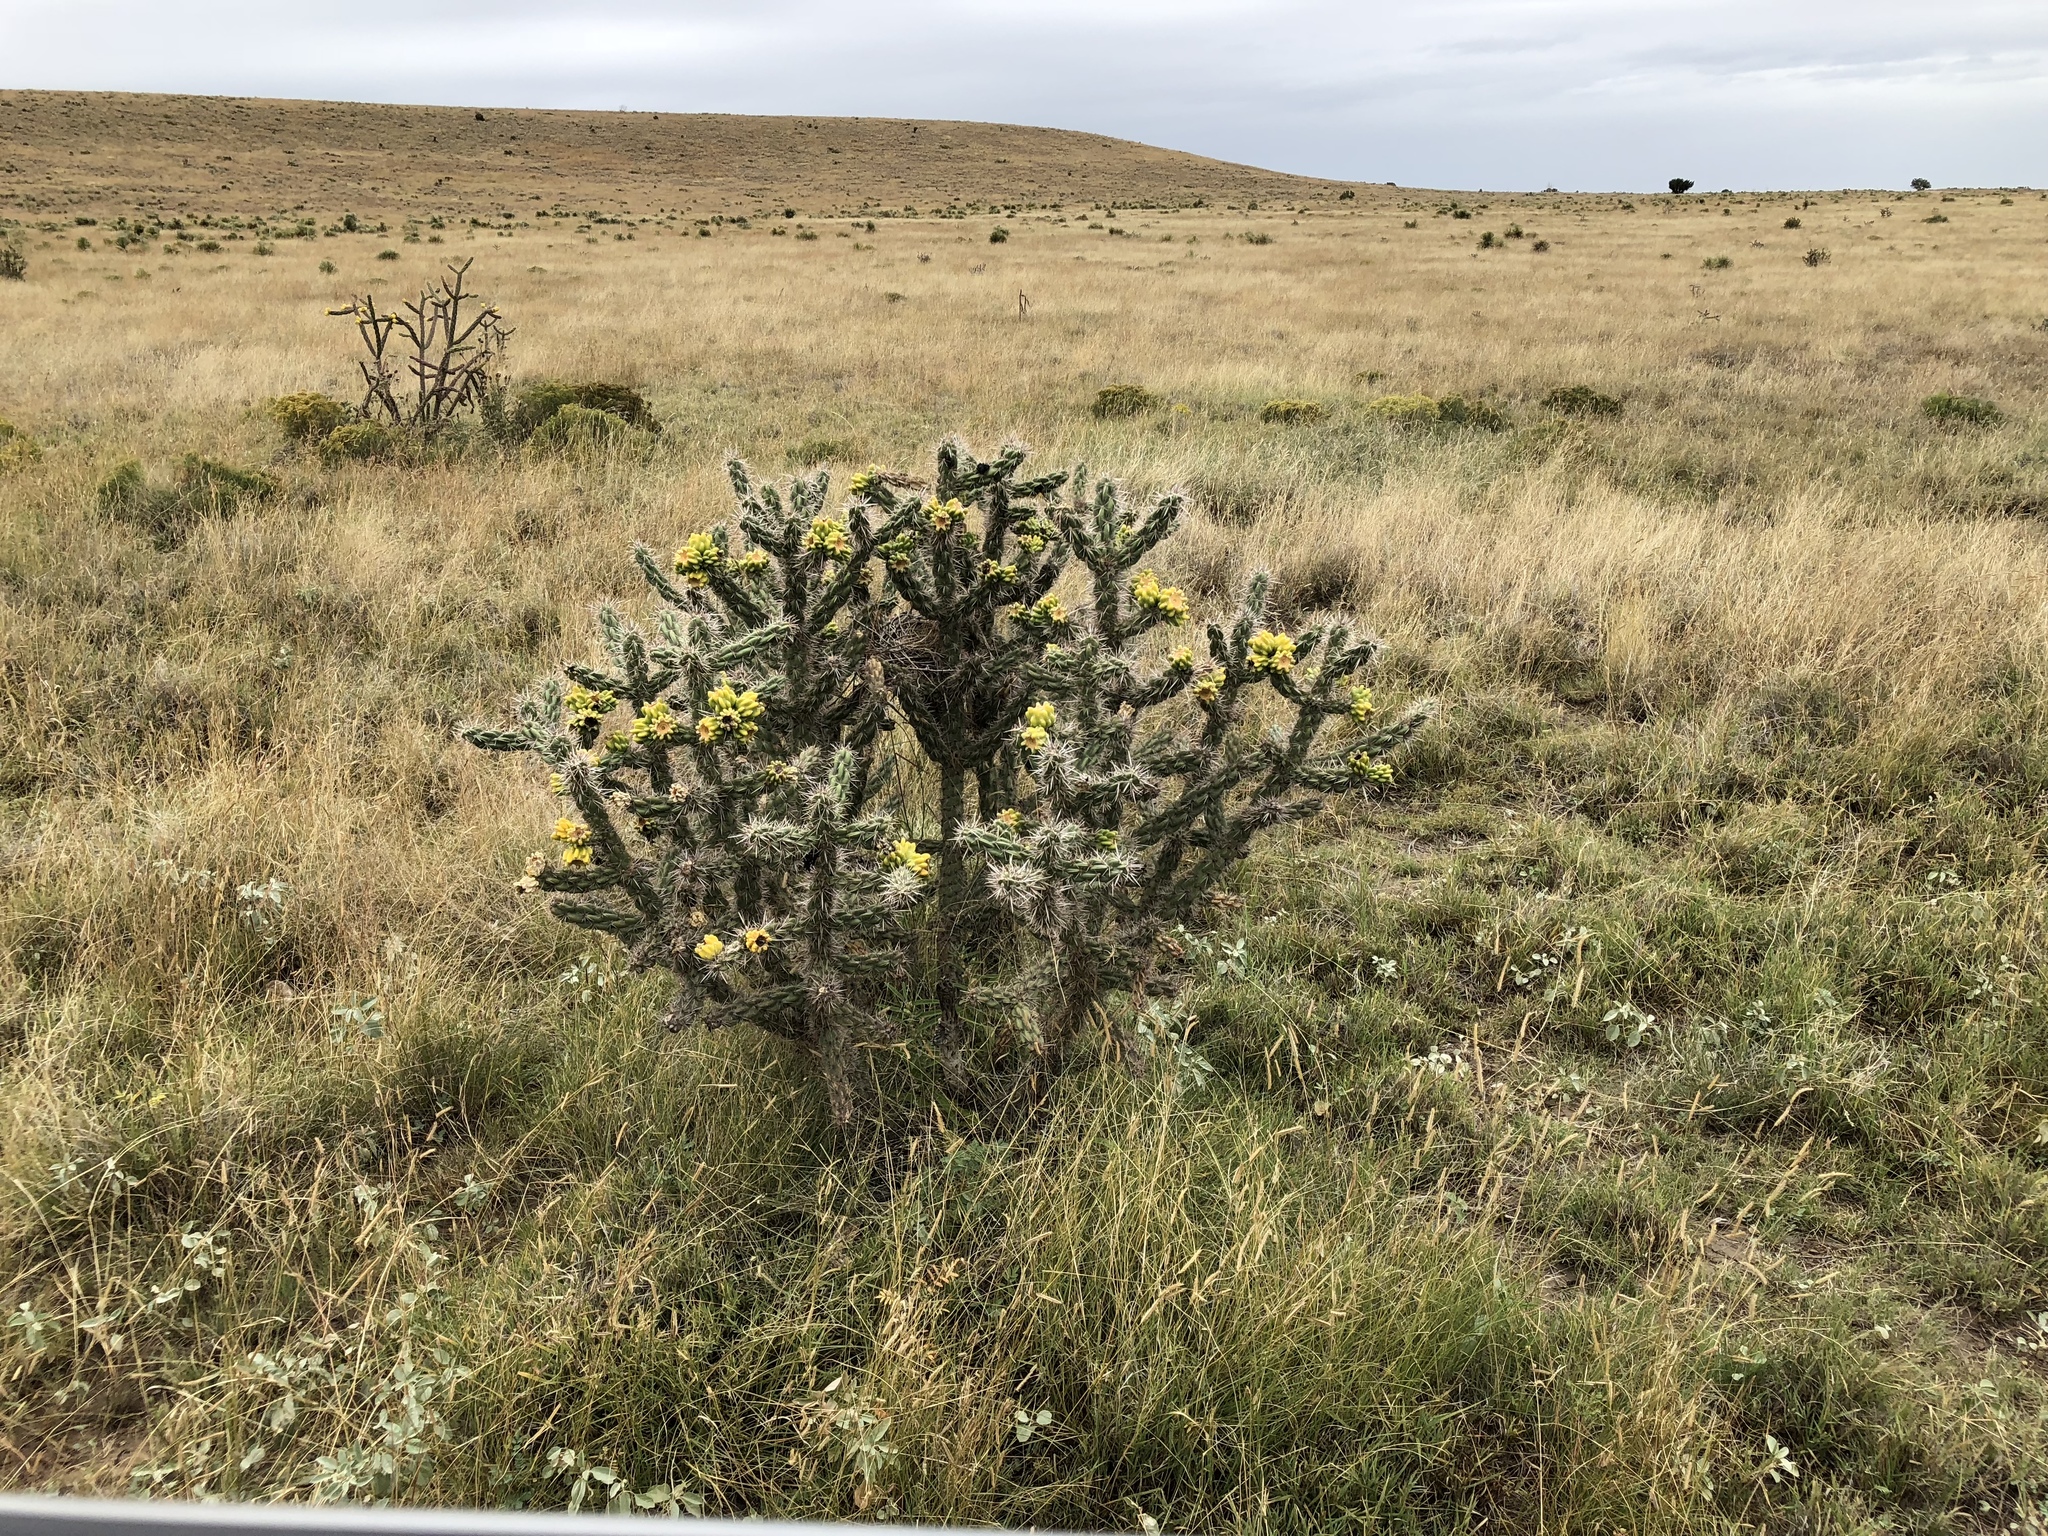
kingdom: Plantae
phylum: Tracheophyta
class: Magnoliopsida
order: Caryophyllales
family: Cactaceae
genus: Cylindropuntia
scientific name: Cylindropuntia imbricata
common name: Candelabrum cactus
